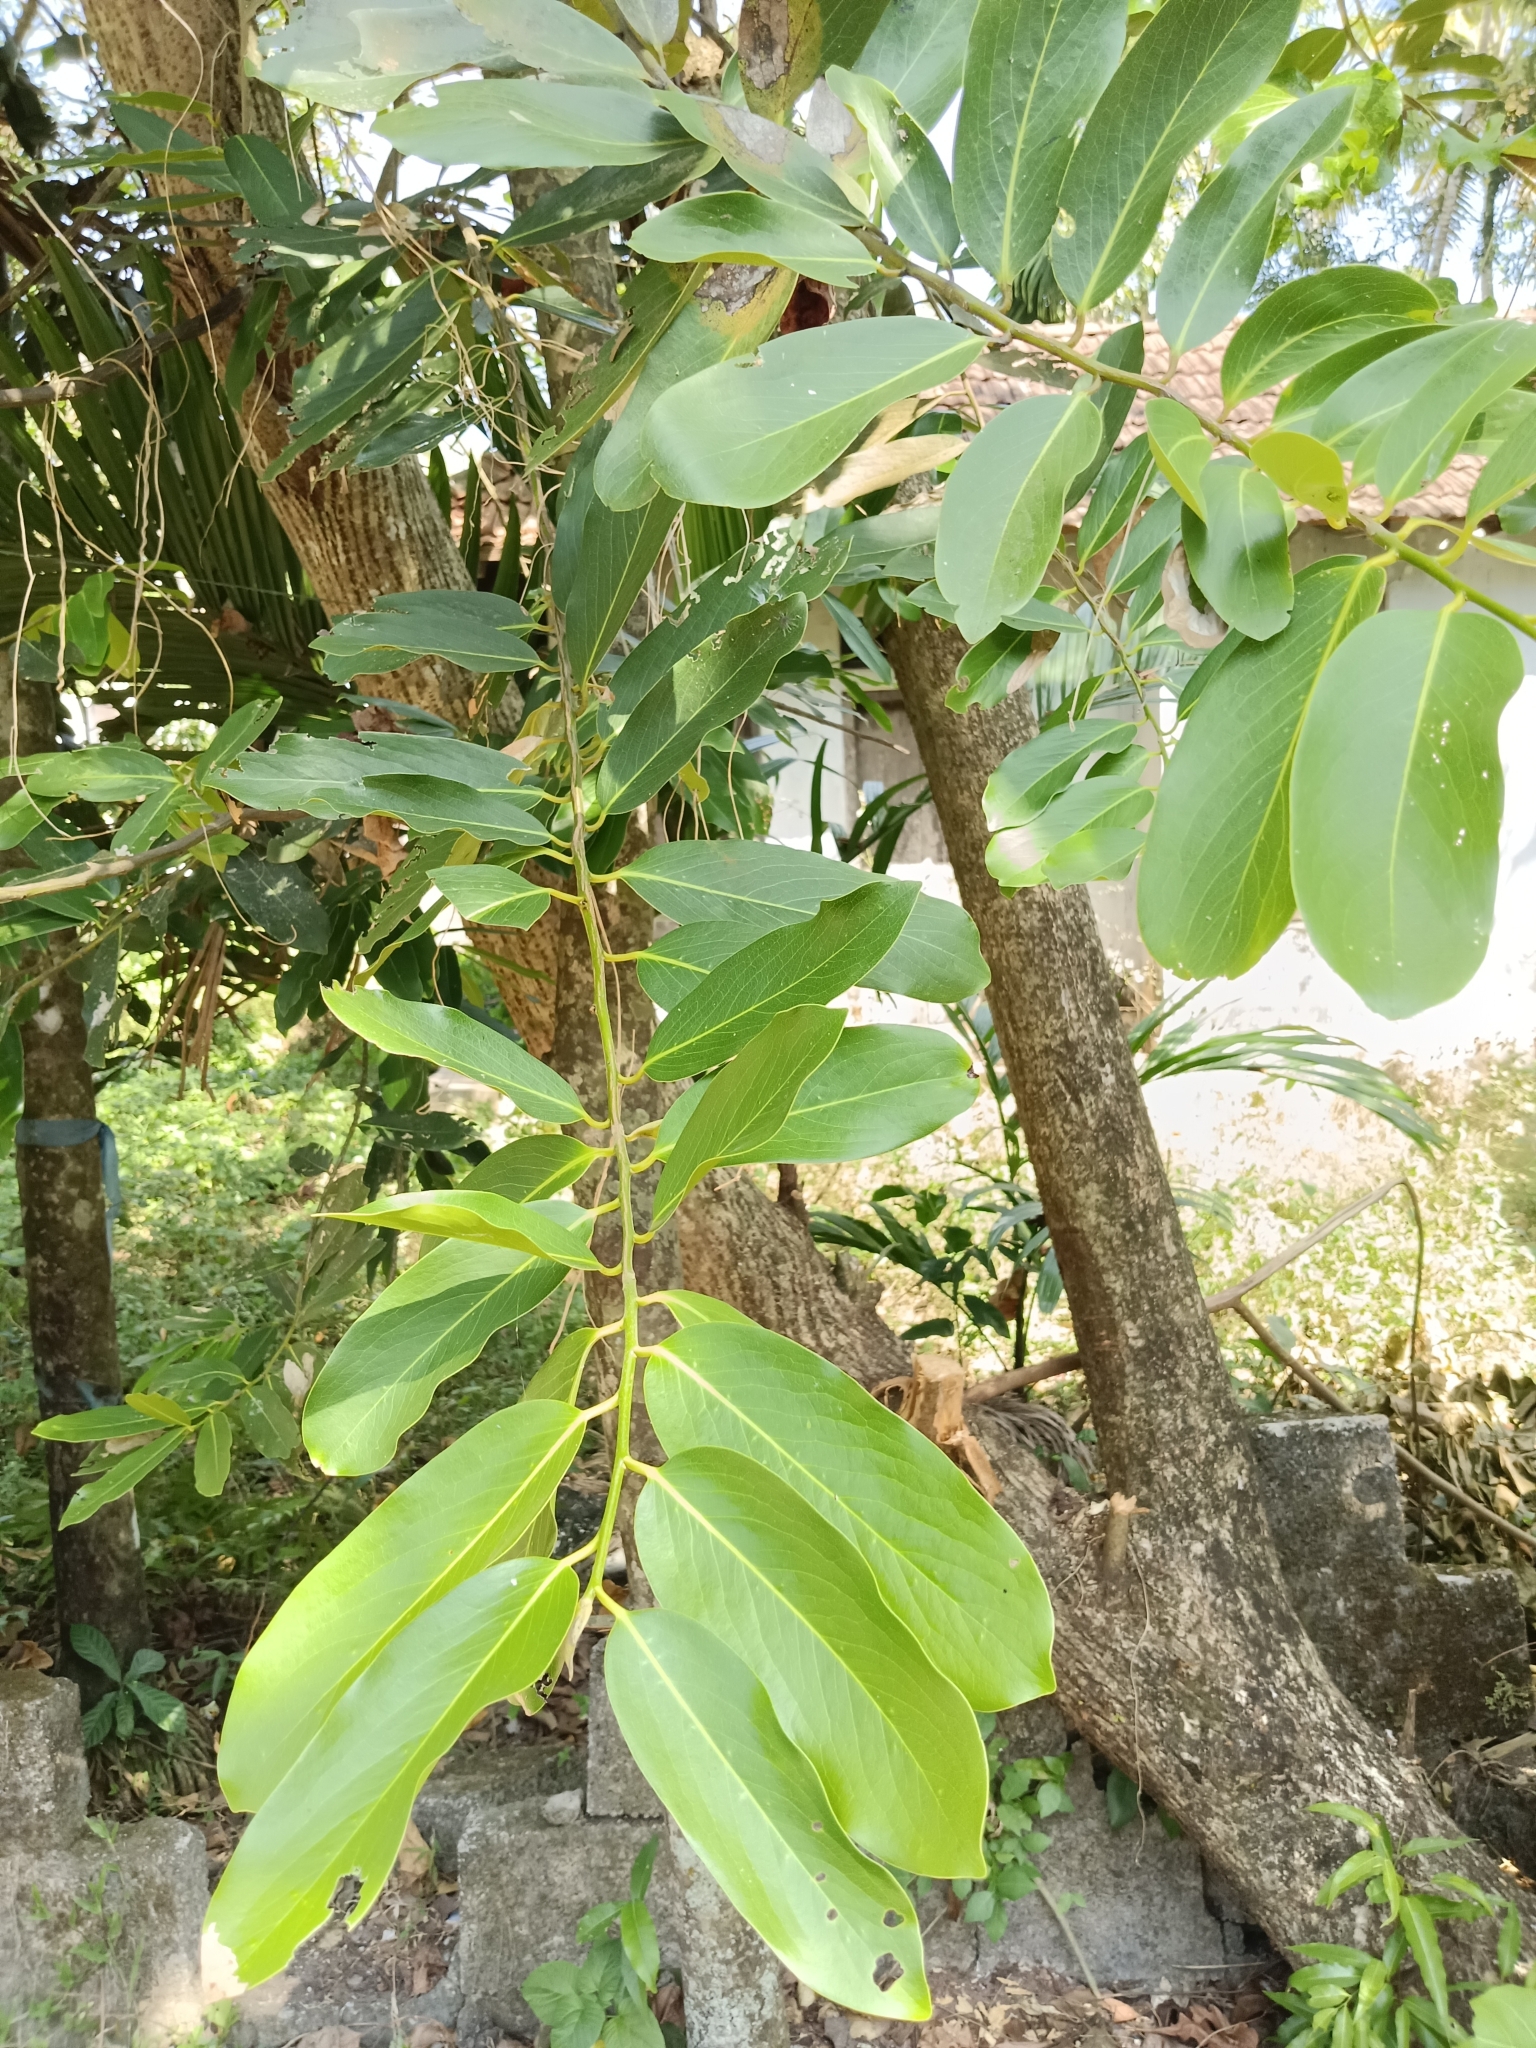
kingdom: Plantae
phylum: Tracheophyta
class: Magnoliopsida
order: Ericales
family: Ebenaceae
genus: Diospyros
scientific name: Diospyros malabarica
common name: Mountain ebony
